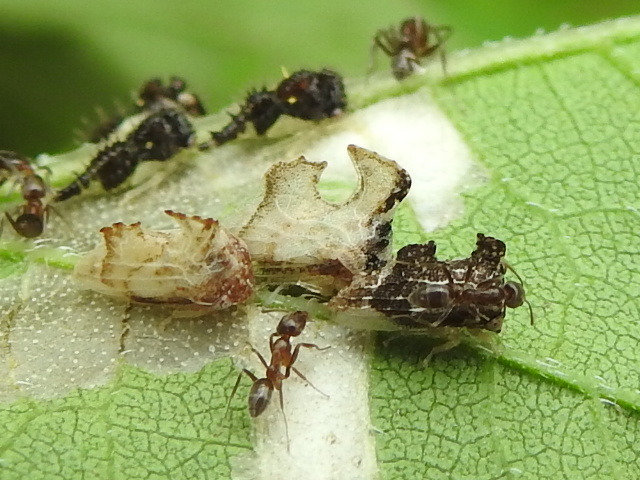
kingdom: Animalia
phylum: Arthropoda
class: Insecta
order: Hemiptera
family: Membracidae
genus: Entylia
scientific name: Entylia carinata
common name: Keeled treehopper
